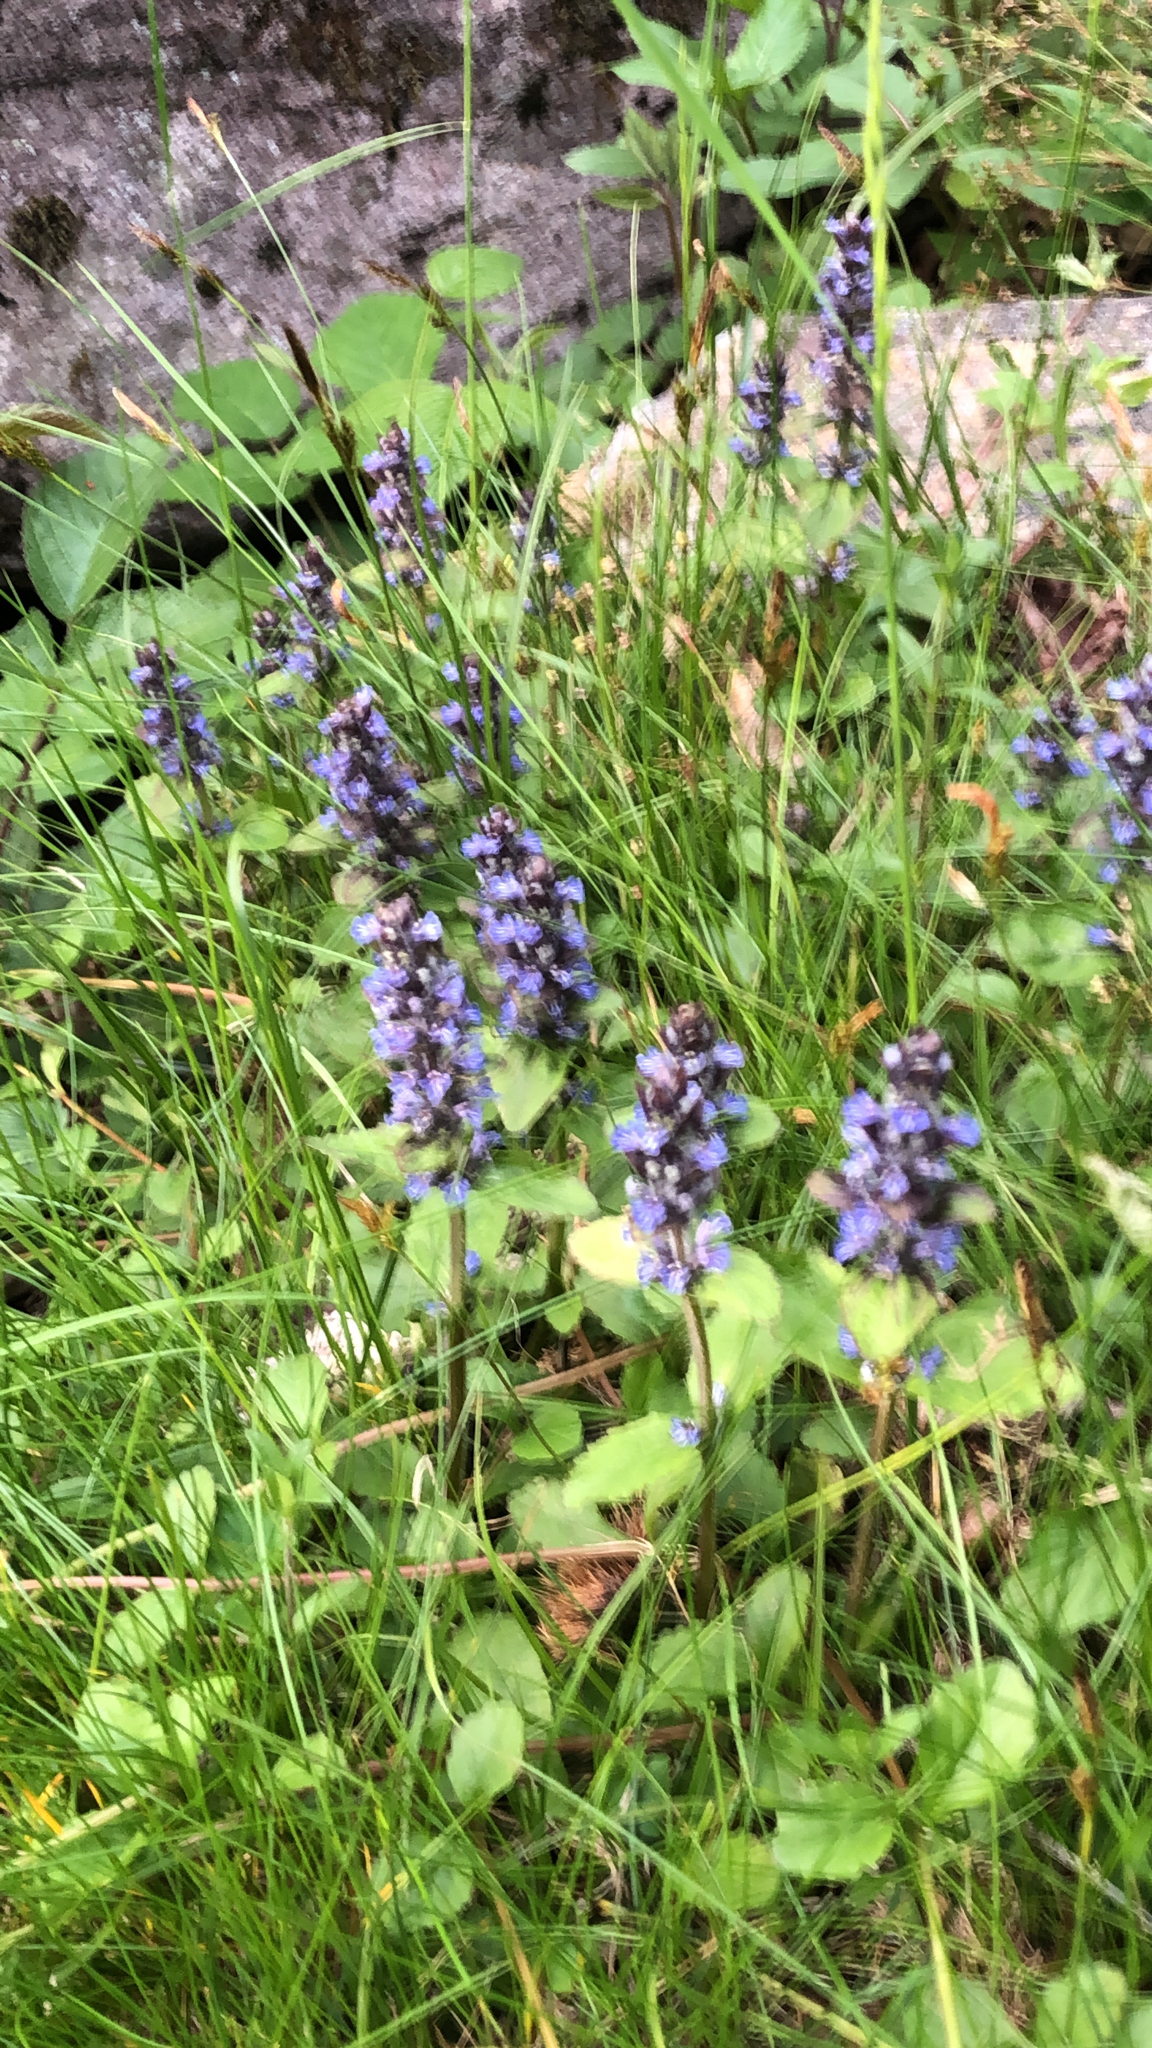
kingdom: Plantae
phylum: Tracheophyta
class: Magnoliopsida
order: Lamiales
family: Lamiaceae
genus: Ajuga
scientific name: Ajuga reptans
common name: Bugle
